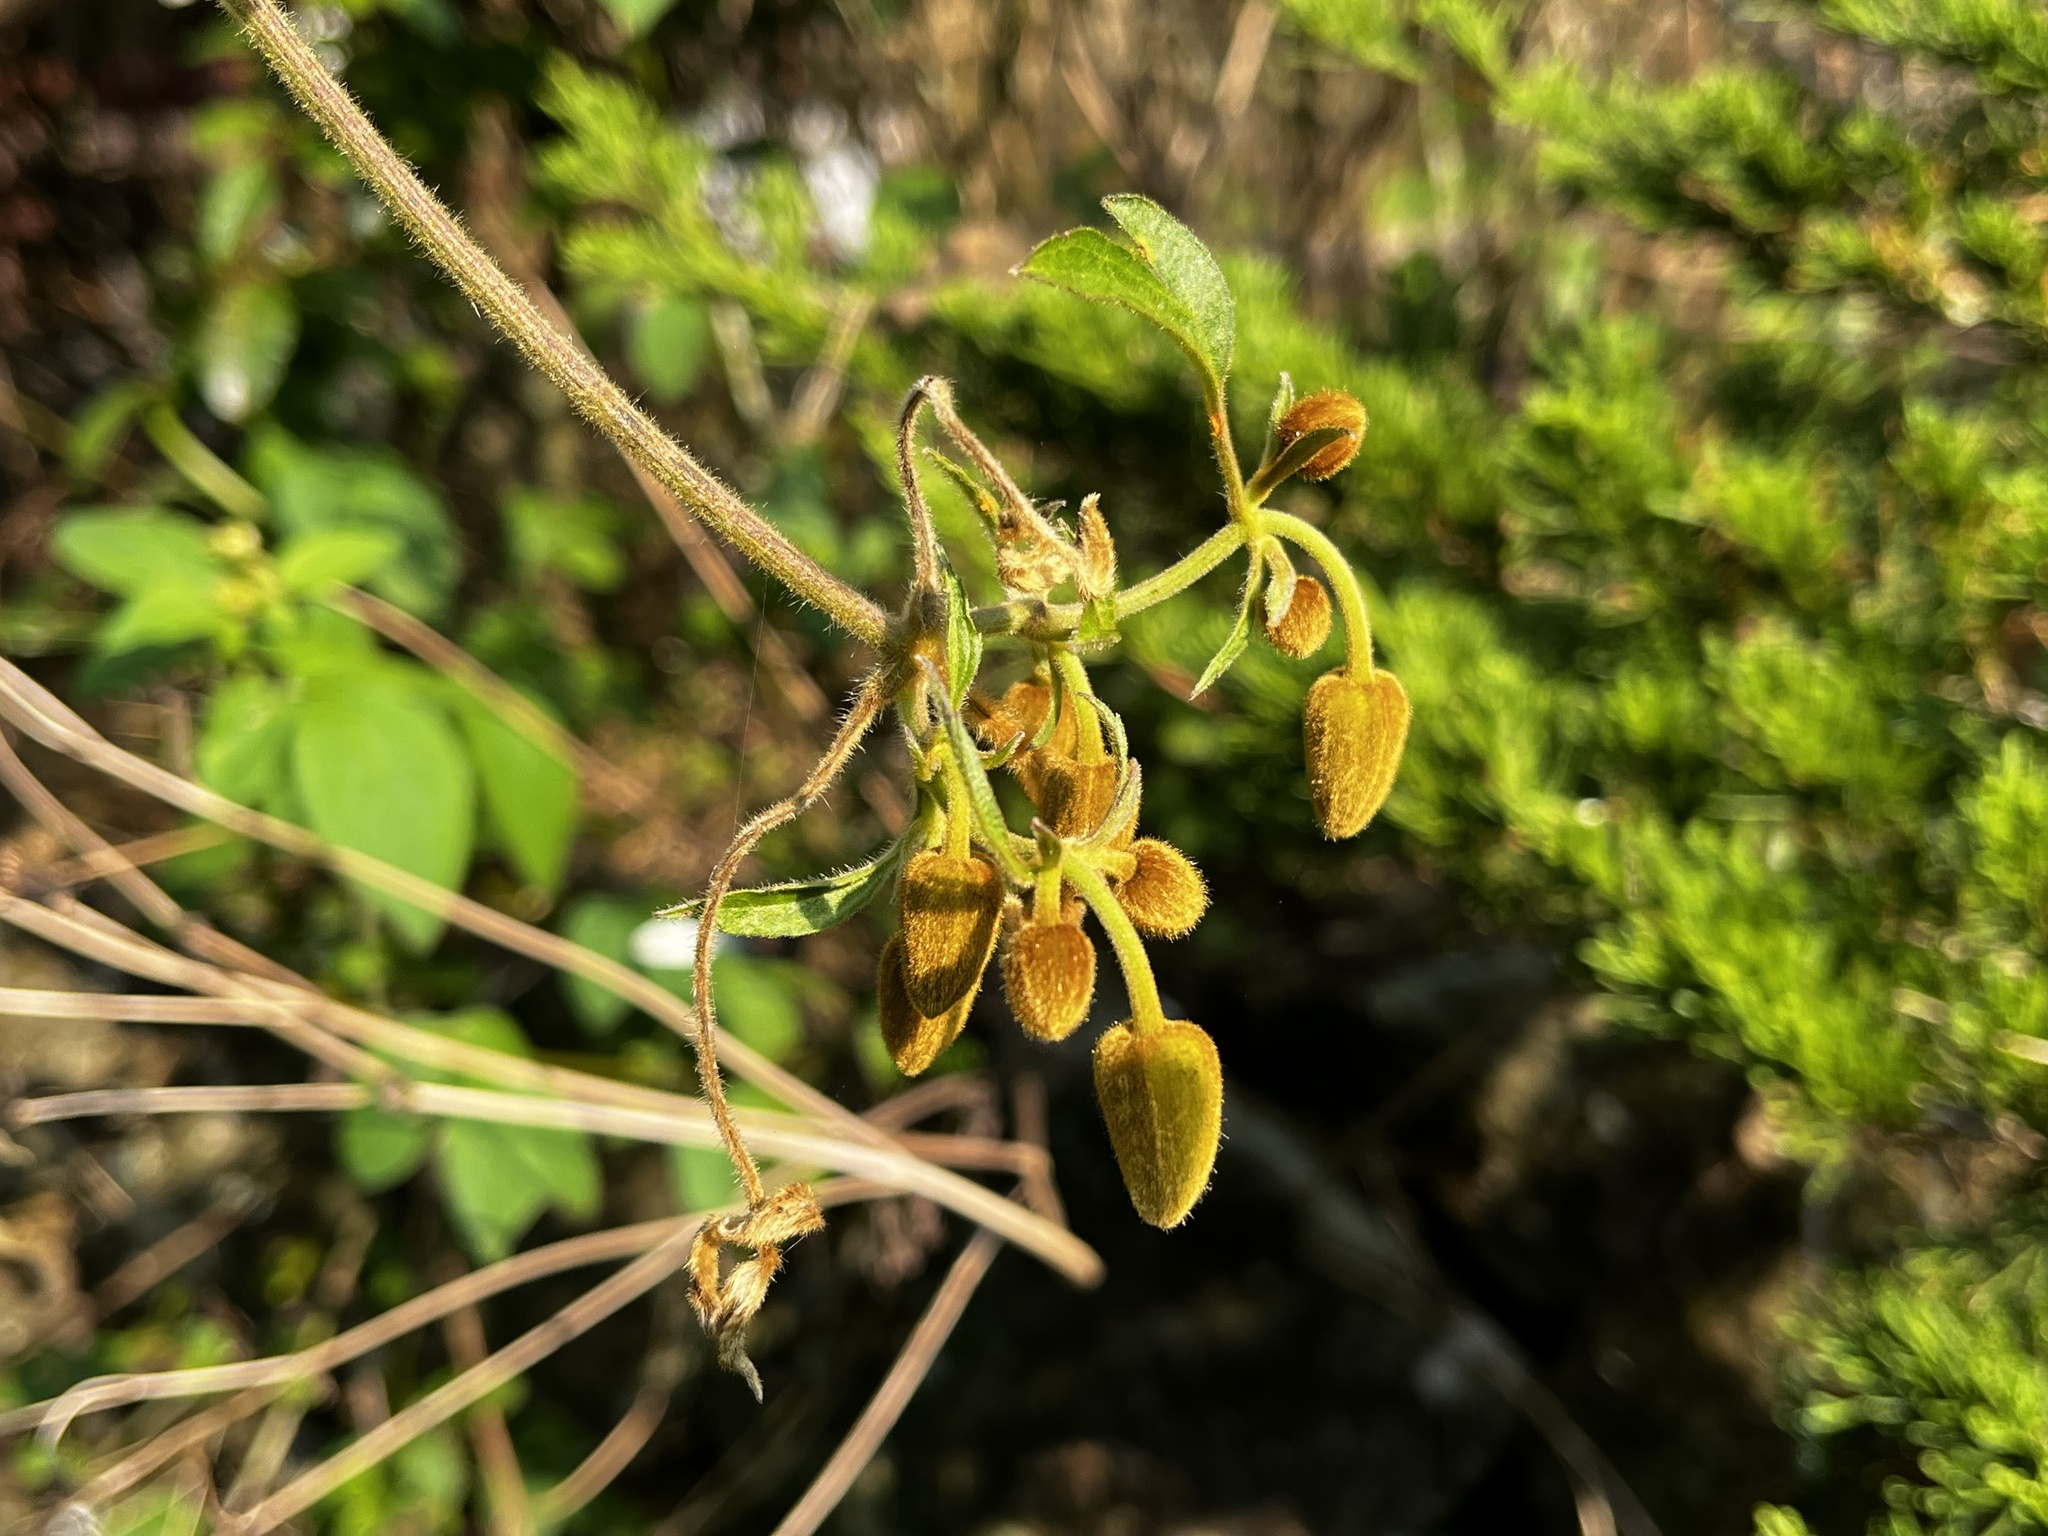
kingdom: Plantae
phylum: Tracheophyta
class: Magnoliopsida
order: Ranunculales
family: Ranunculaceae
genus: Clematis
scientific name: Clematis leschenaultiana
